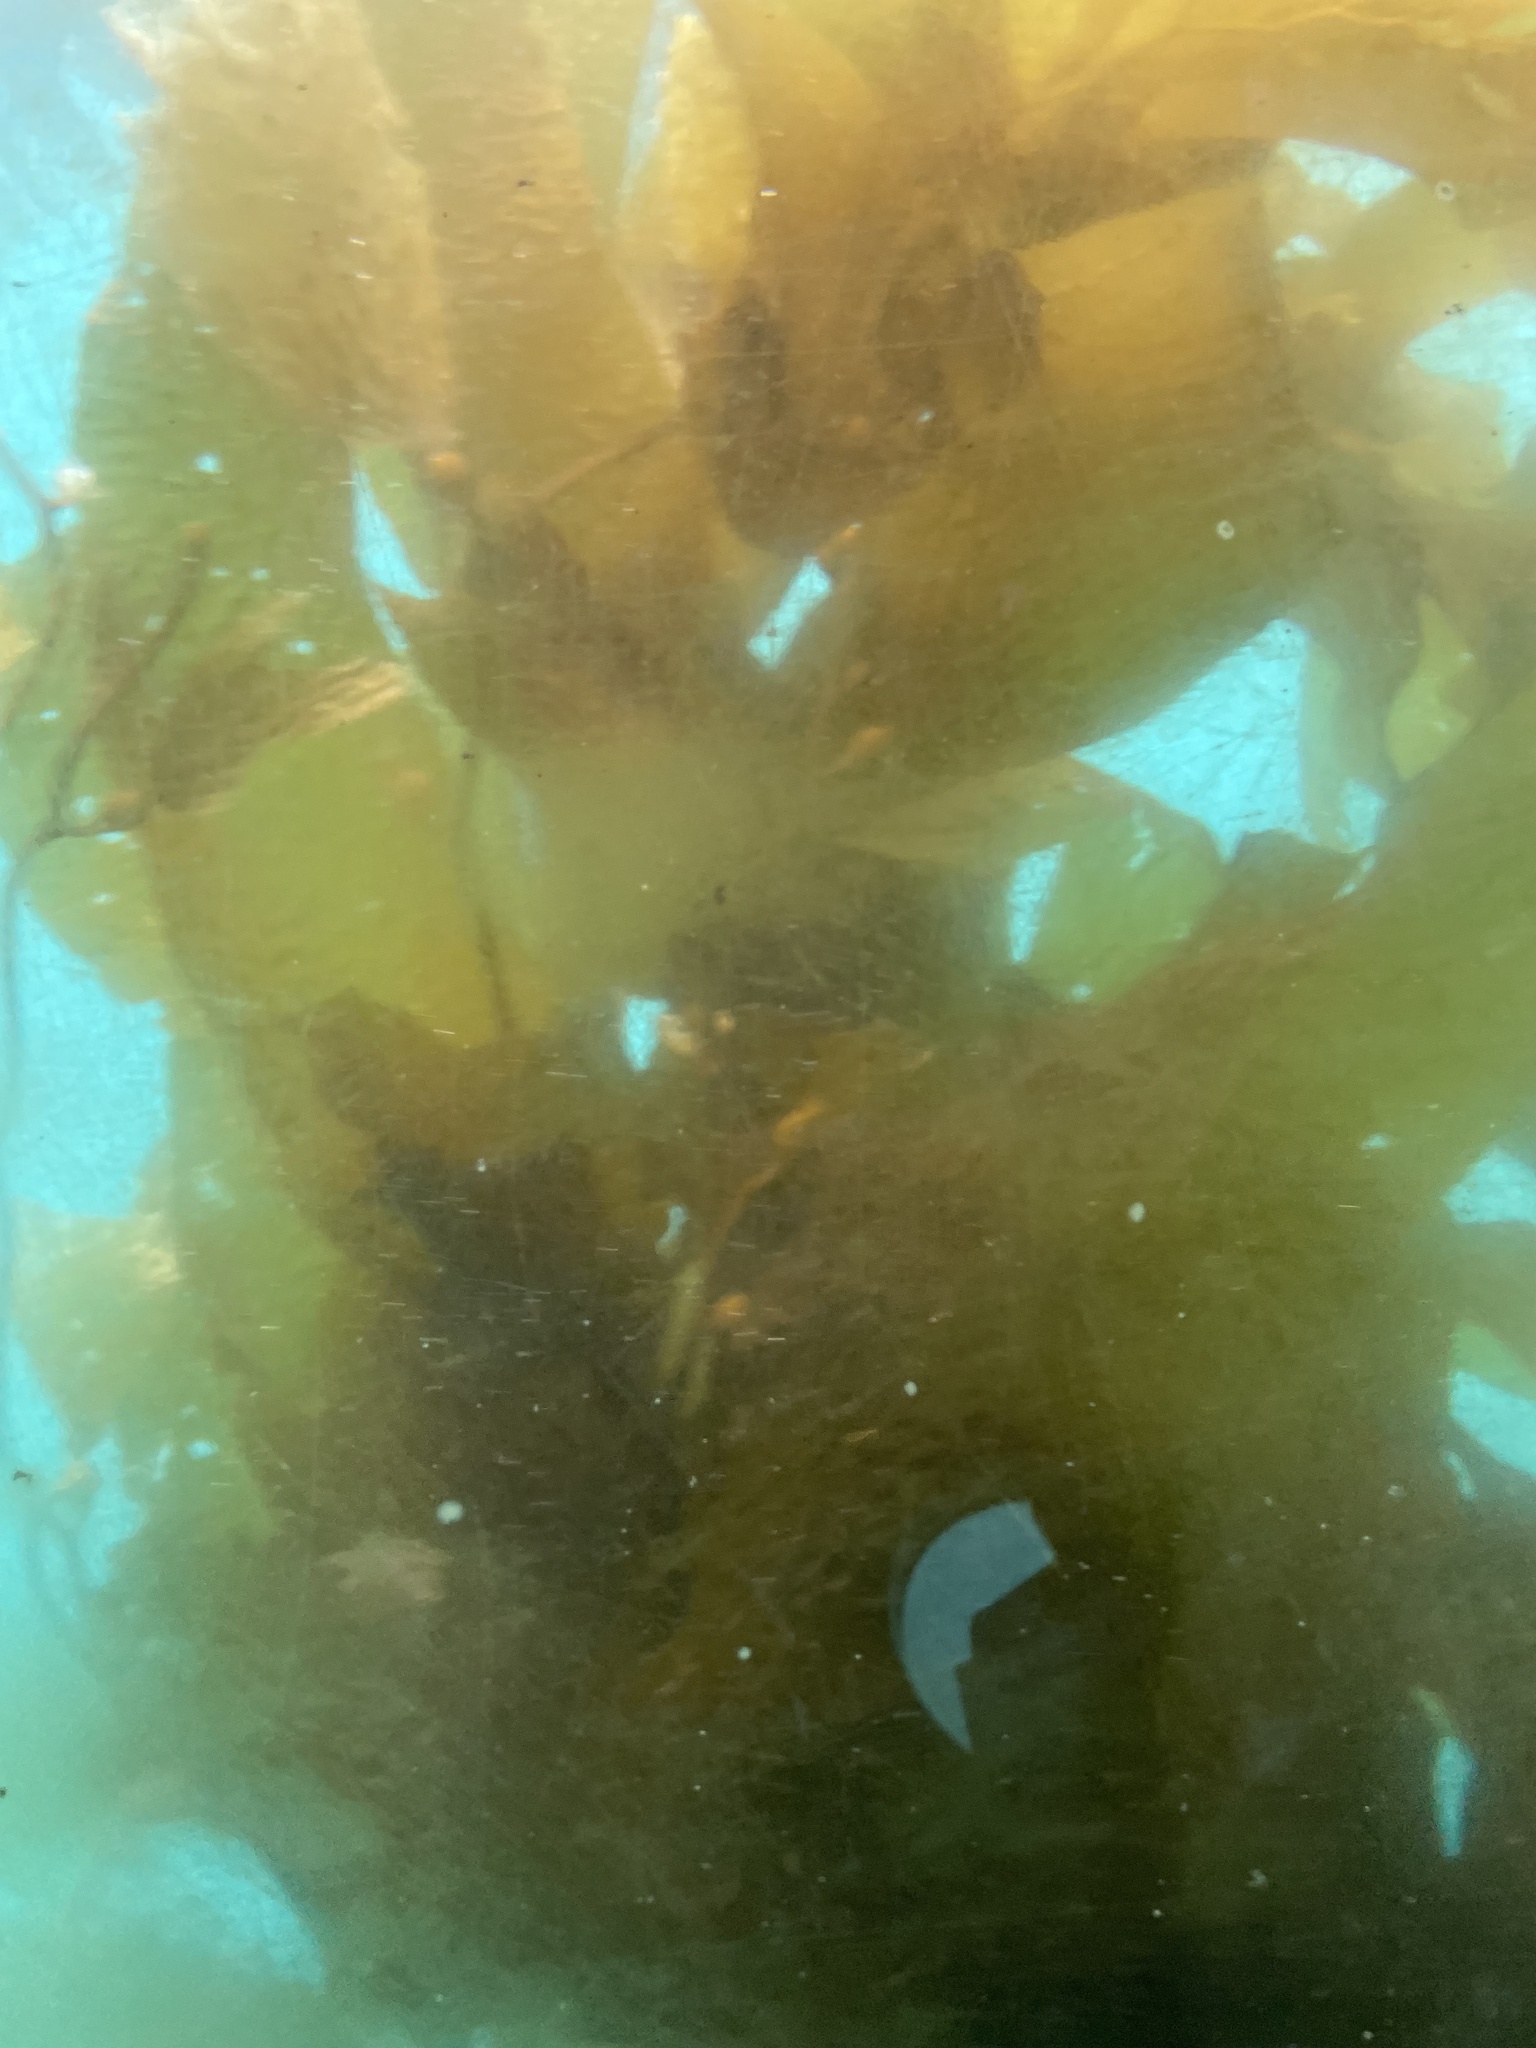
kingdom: Chromista
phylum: Ochrophyta
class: Phaeophyceae
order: Laminariales
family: Laminariaceae
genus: Macrocystis
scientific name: Macrocystis pyrifera
